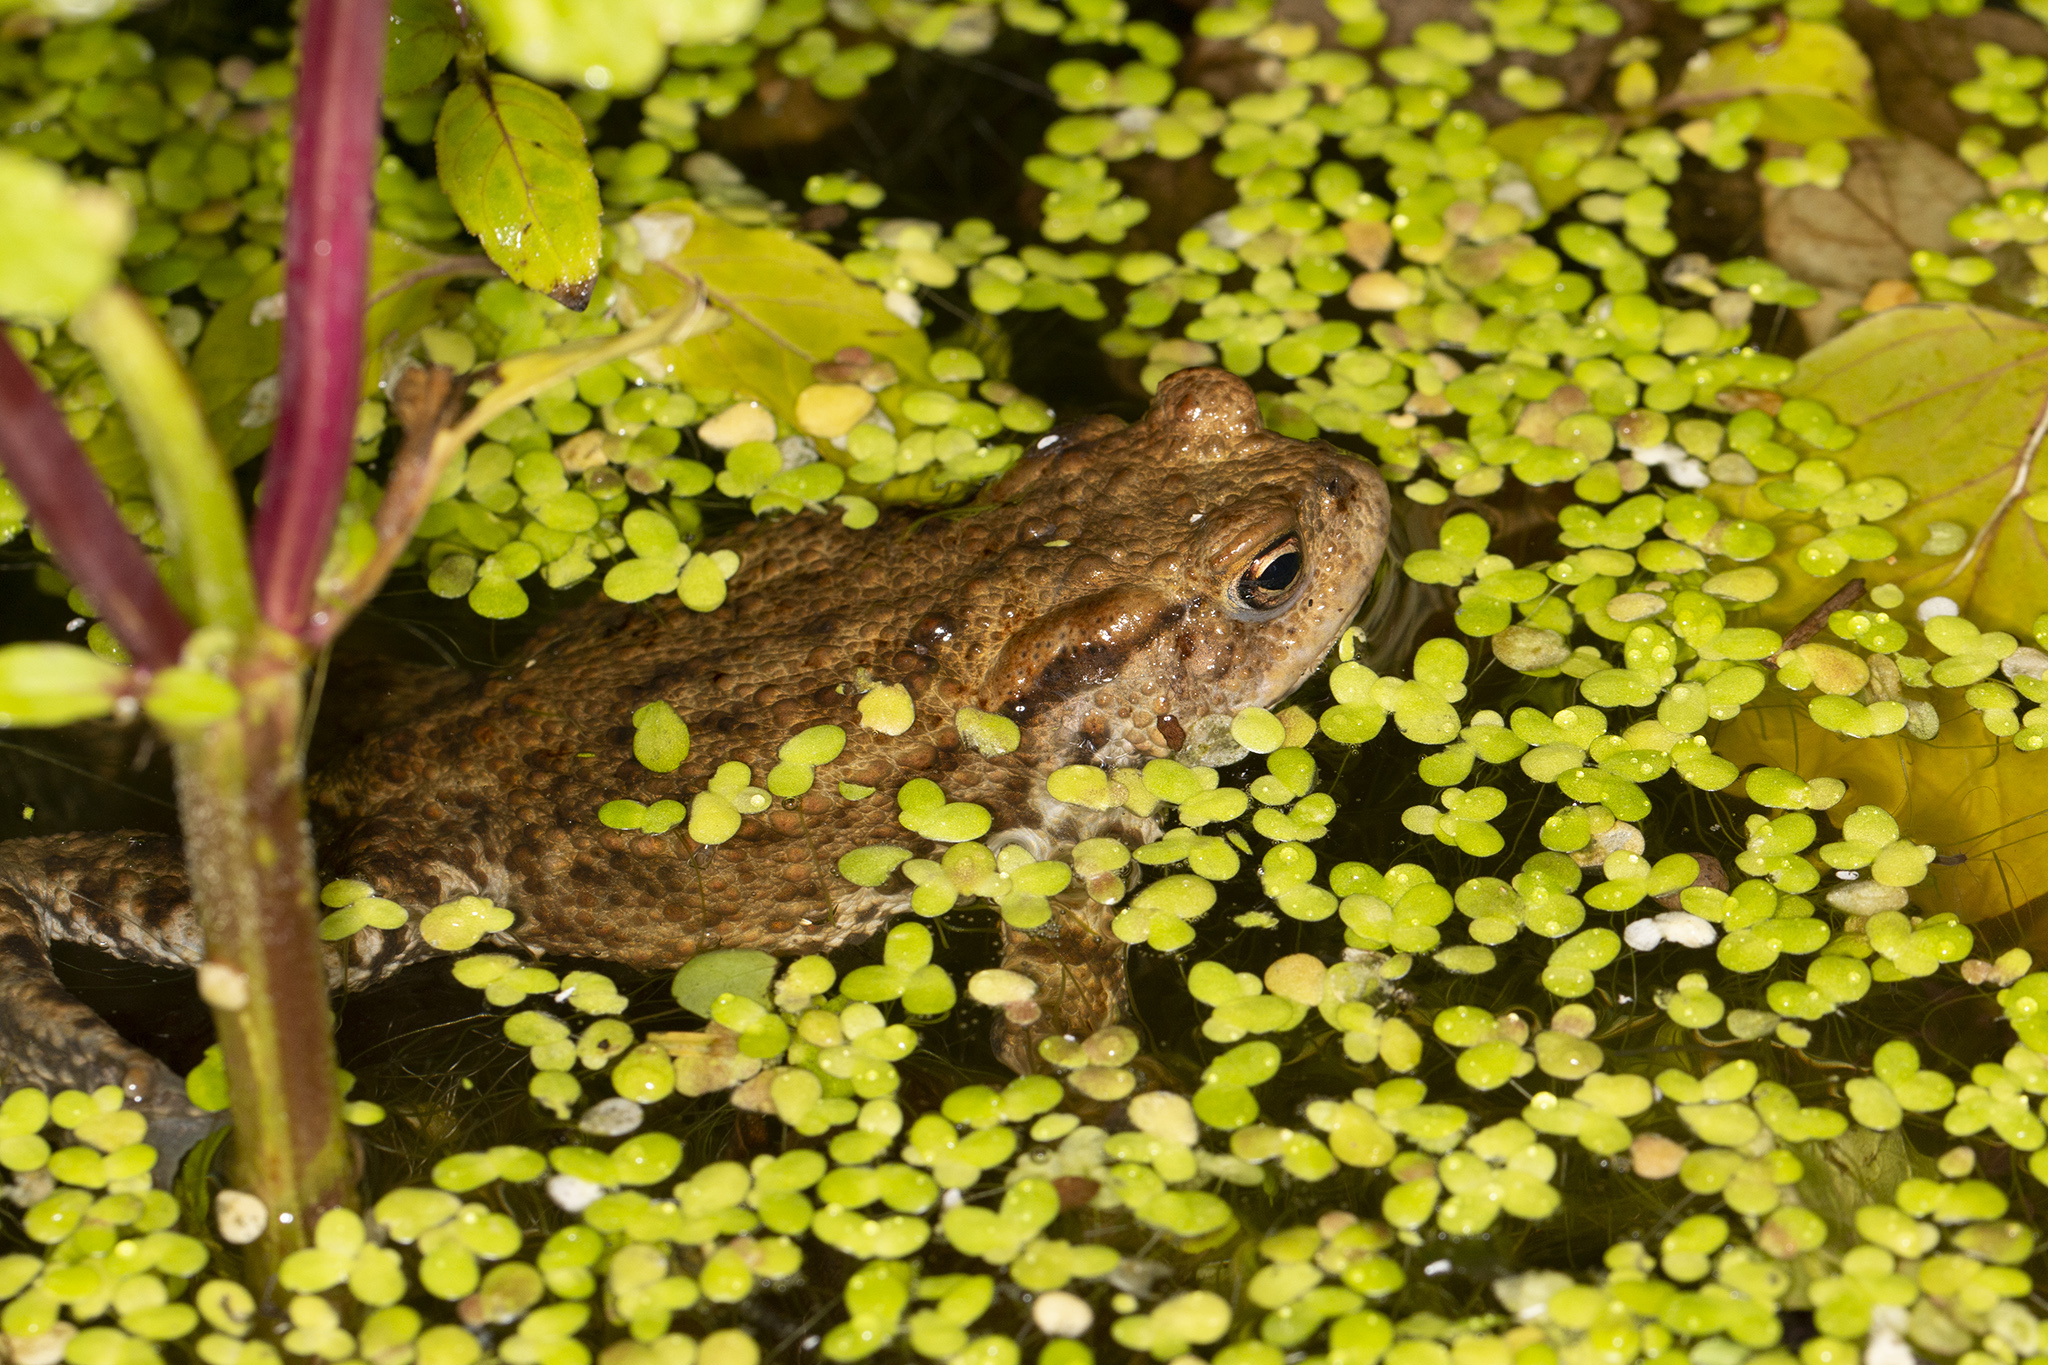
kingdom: Animalia
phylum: Chordata
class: Amphibia
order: Anura
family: Bufonidae
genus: Bufo
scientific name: Bufo bufo
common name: Common toad
